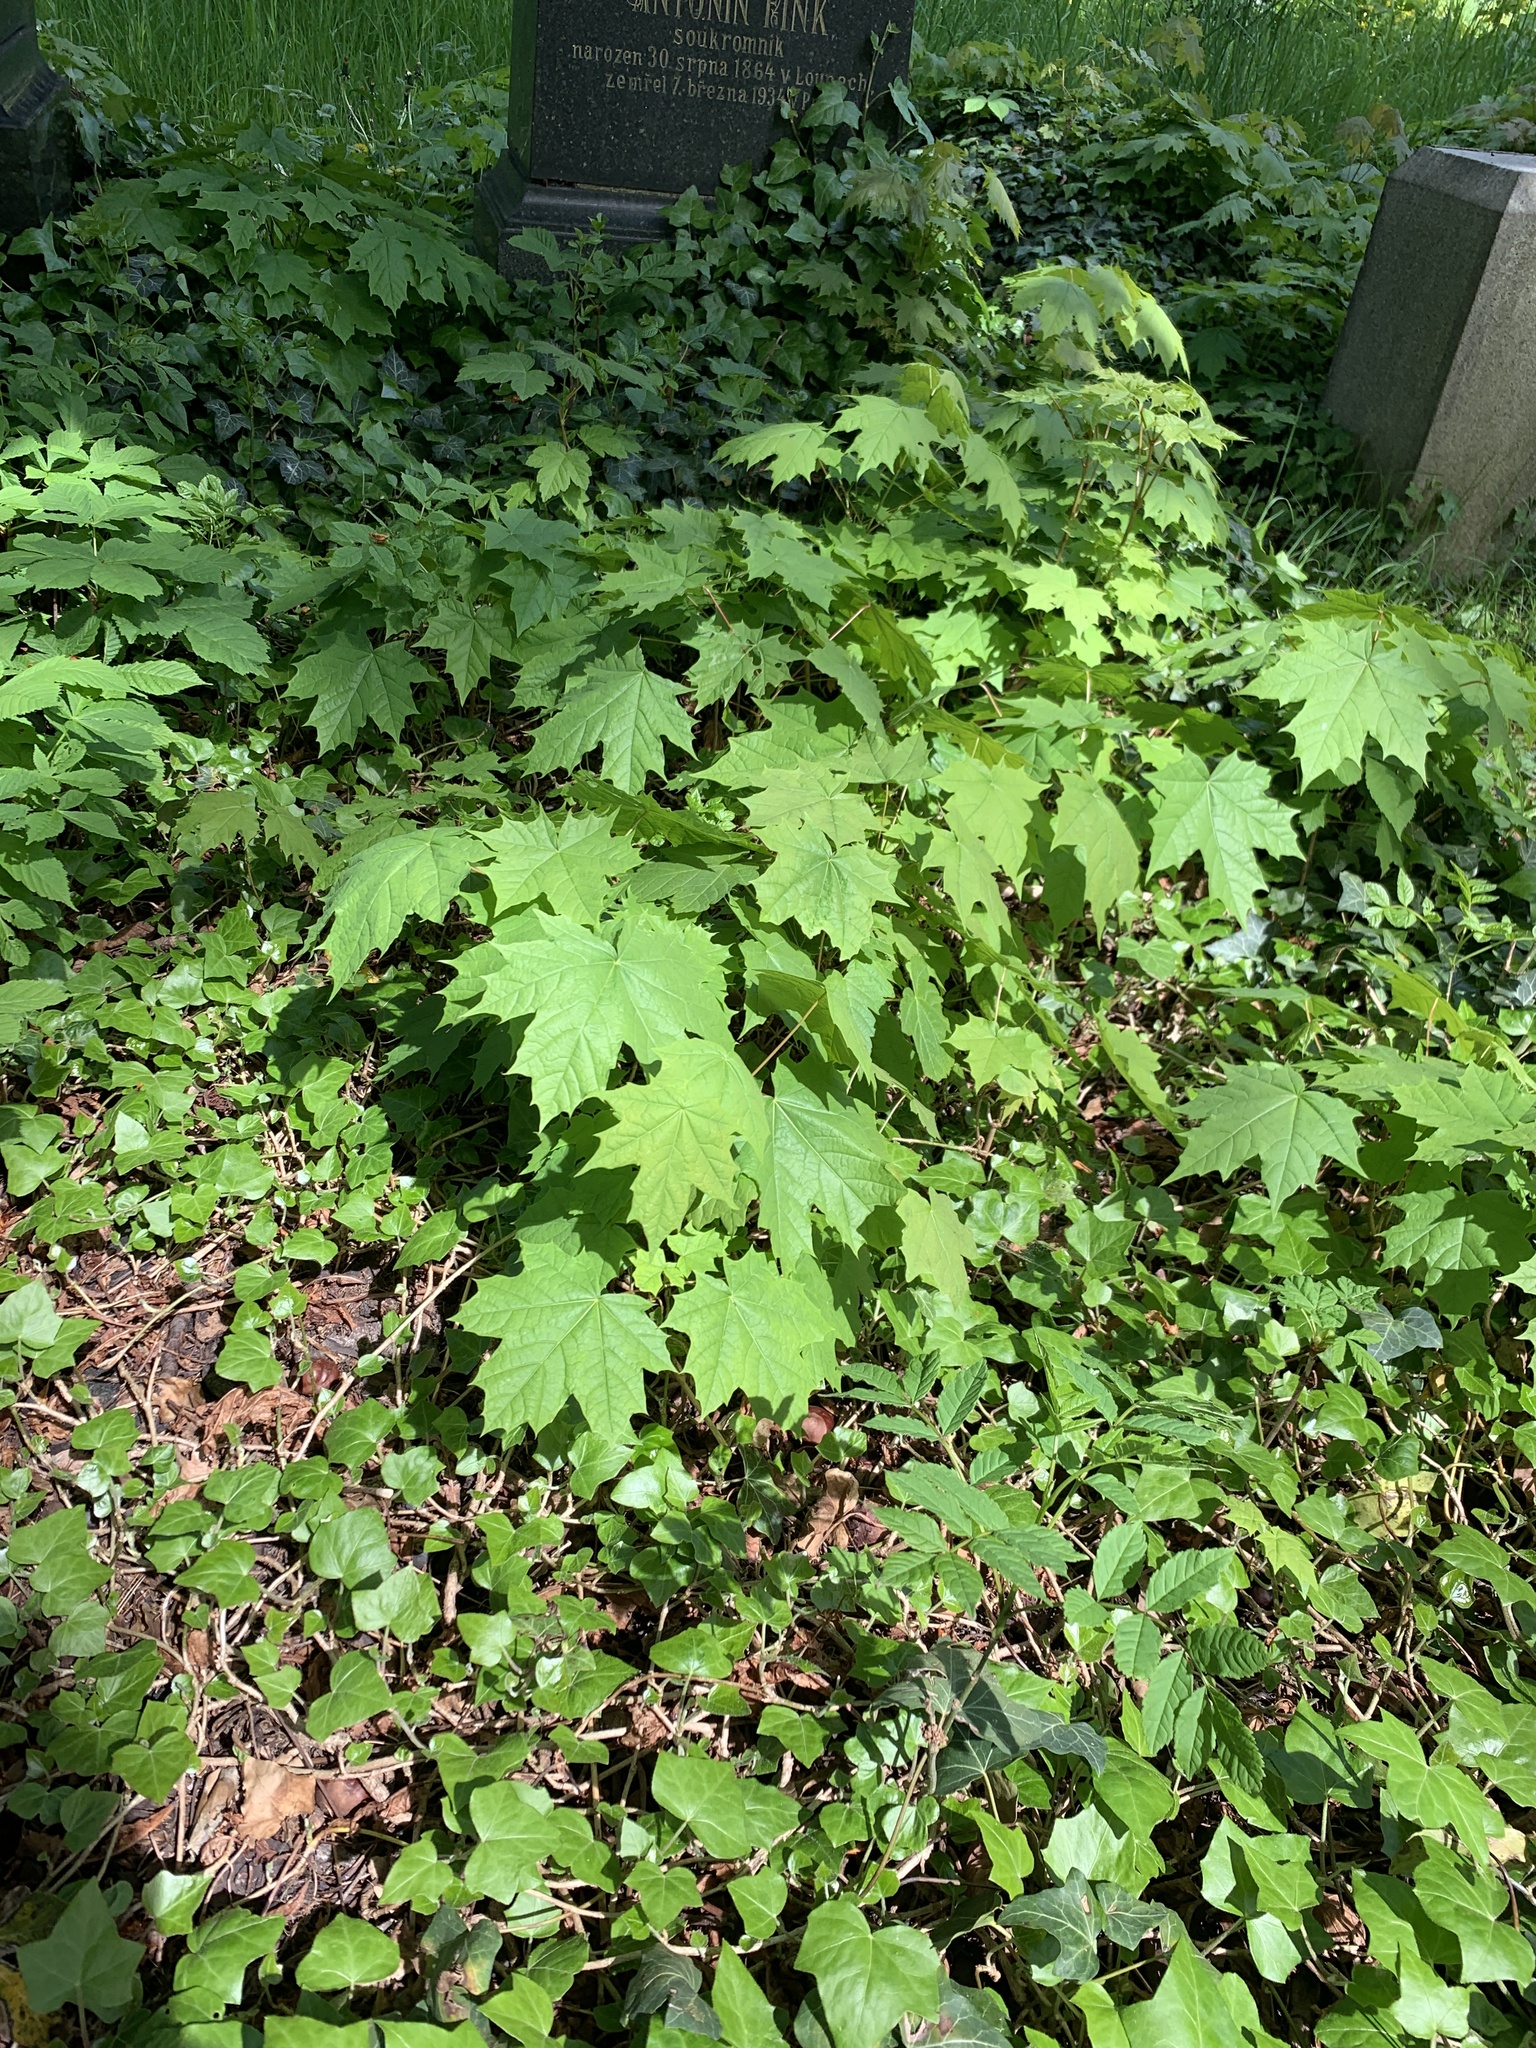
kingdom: Plantae
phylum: Tracheophyta
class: Magnoliopsida
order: Sapindales
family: Sapindaceae
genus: Acer
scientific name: Acer platanoides
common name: Norway maple
